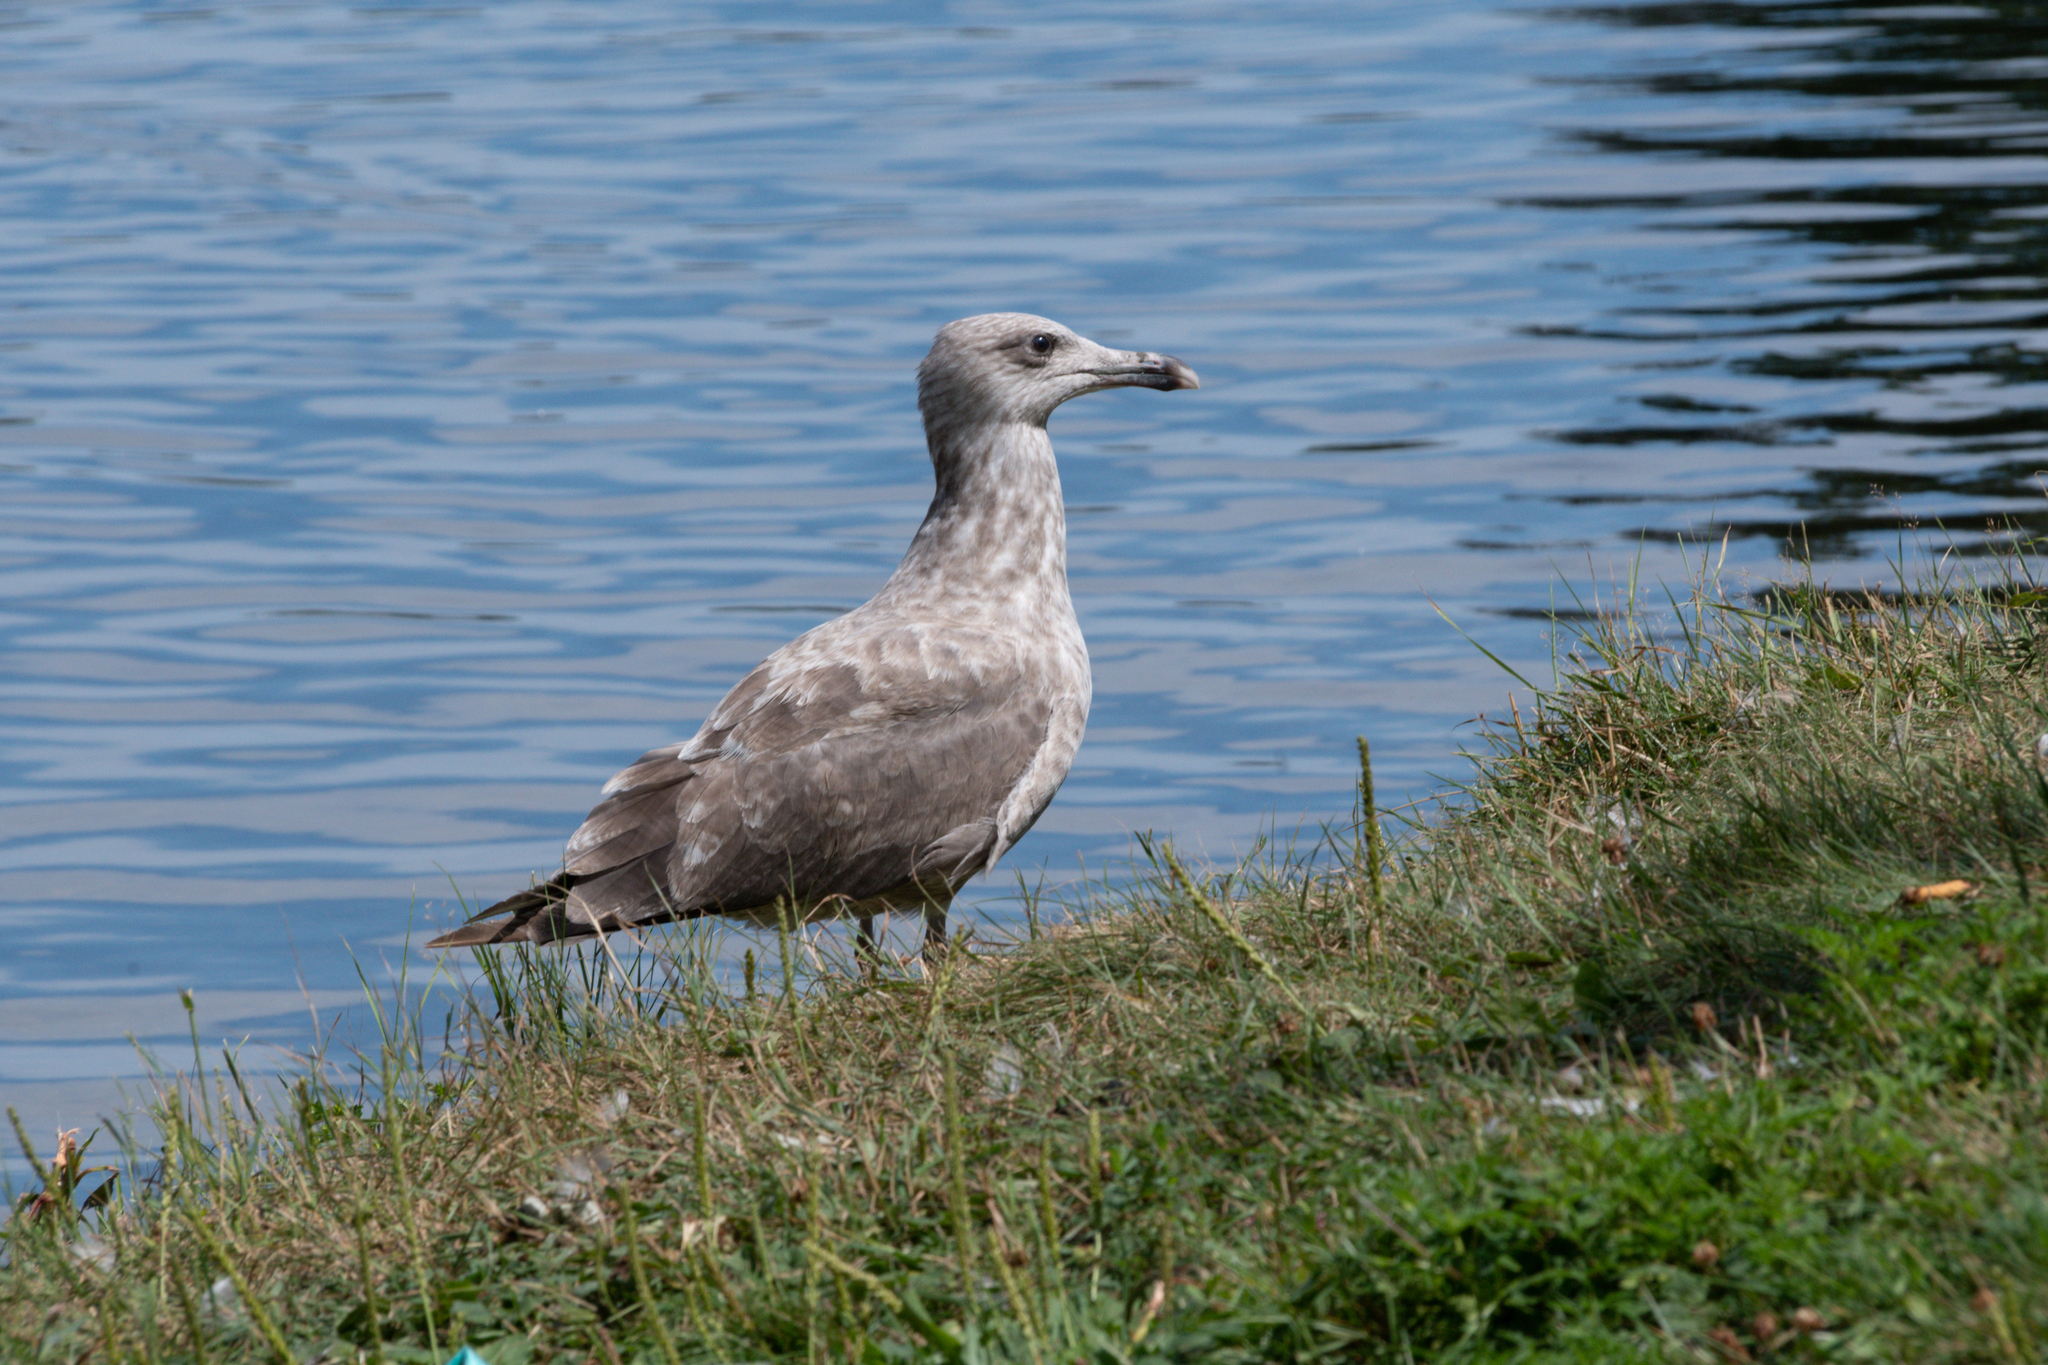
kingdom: Animalia
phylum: Chordata
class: Aves
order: Charadriiformes
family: Laridae
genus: Larus
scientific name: Larus argentatus
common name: Herring gull
